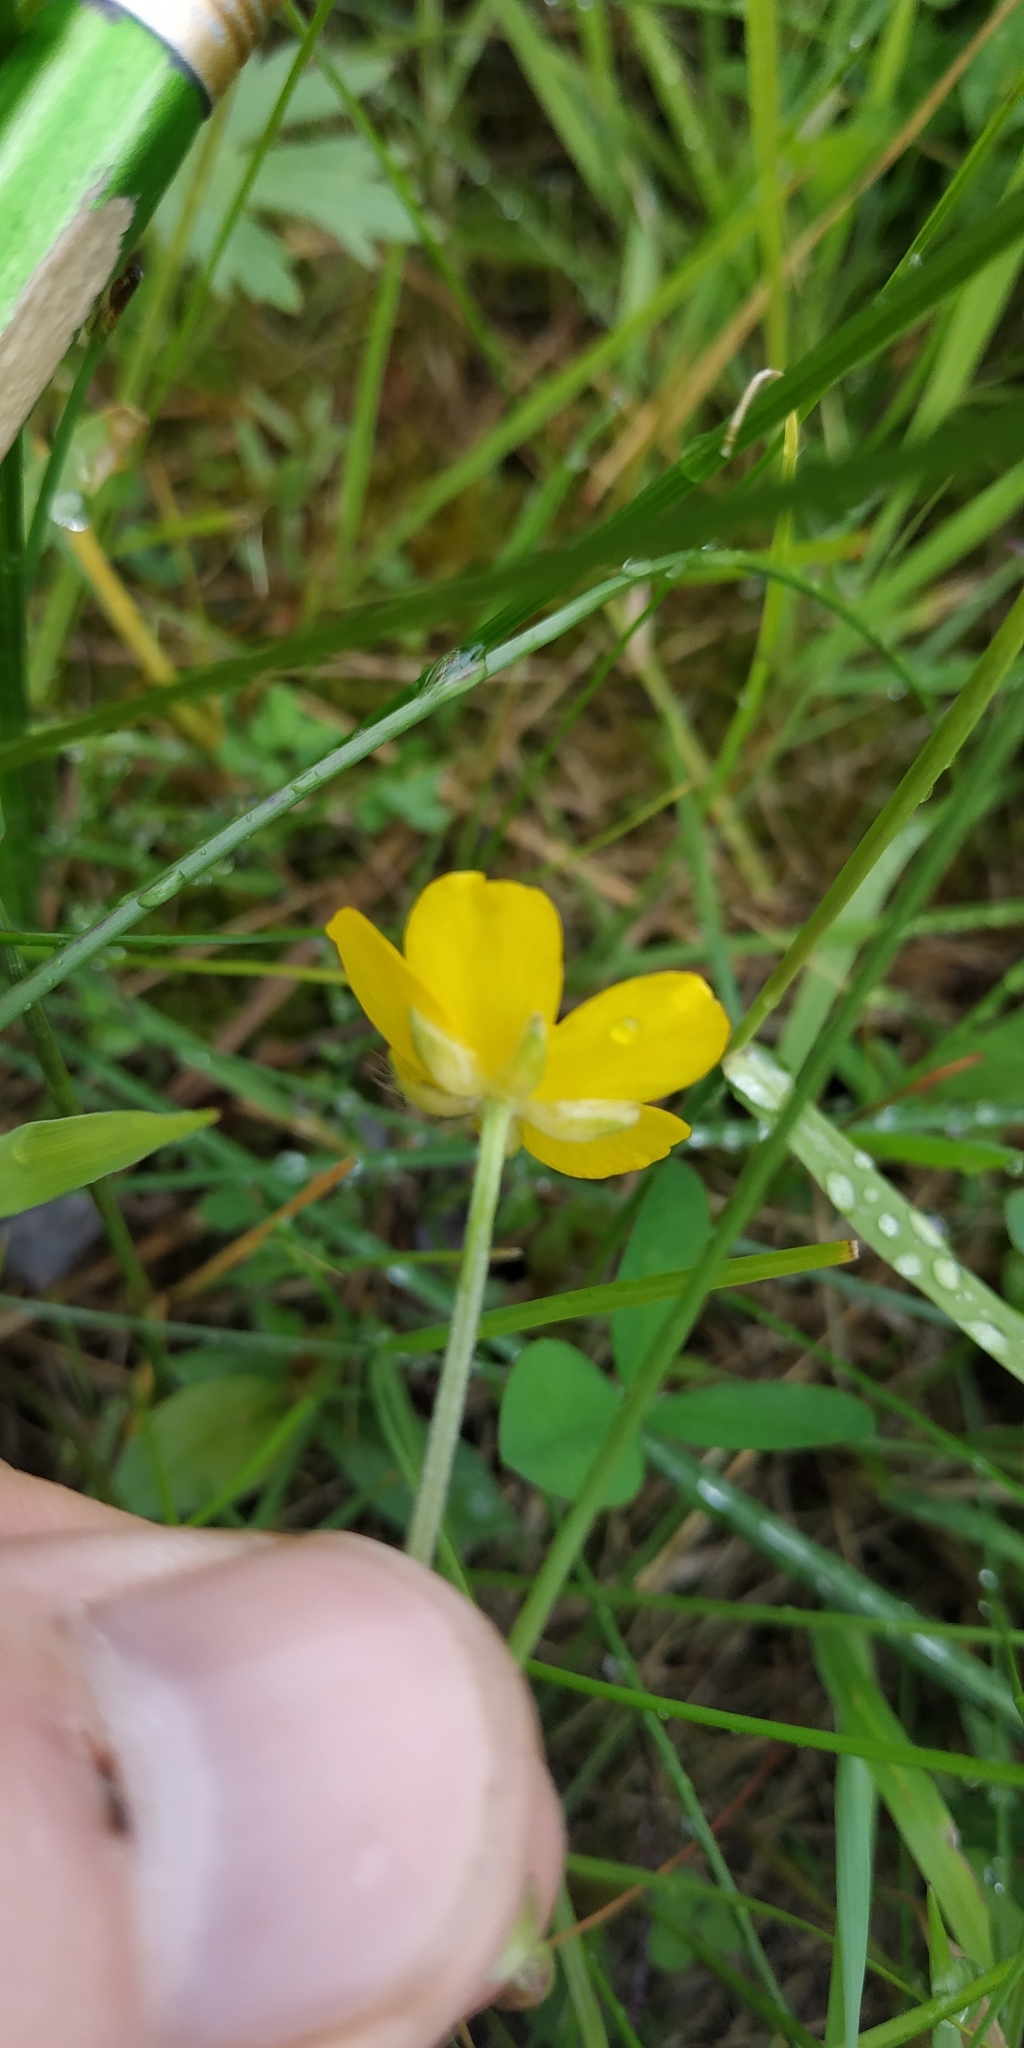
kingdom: Plantae
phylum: Tracheophyta
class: Magnoliopsida
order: Ranunculales
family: Ranunculaceae
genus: Ranunculus
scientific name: Ranunculus repens
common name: Creeping buttercup
